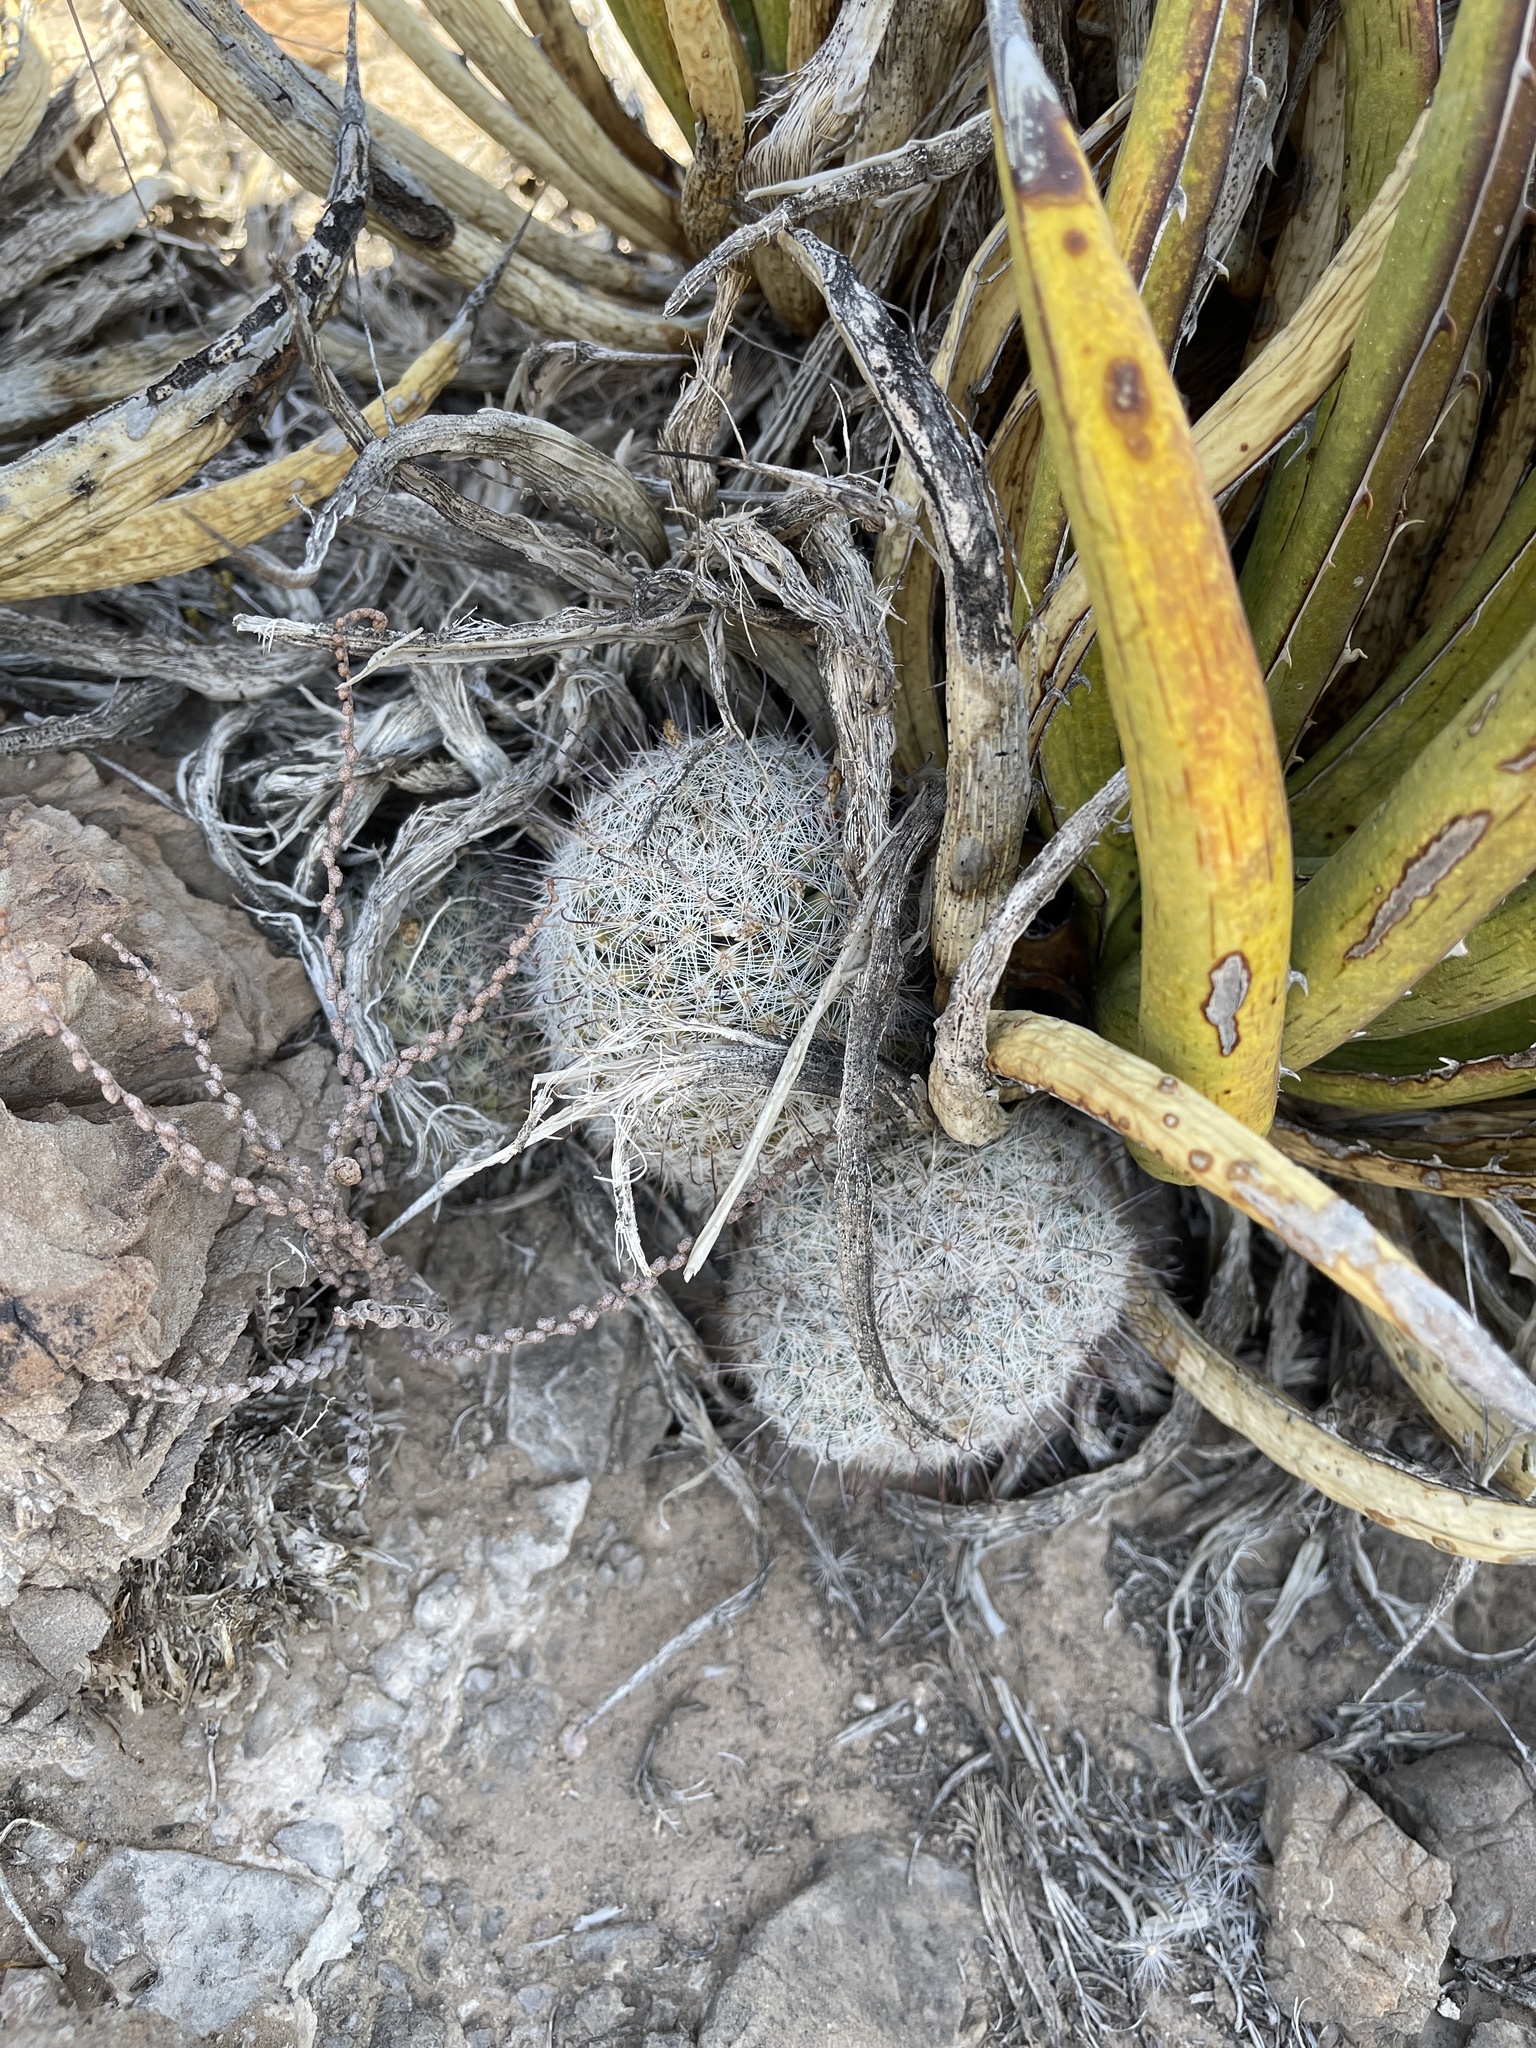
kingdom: Plantae
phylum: Tracheophyta
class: Magnoliopsida
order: Caryophyllales
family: Cactaceae
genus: Cochemiea
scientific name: Cochemiea grahamii
